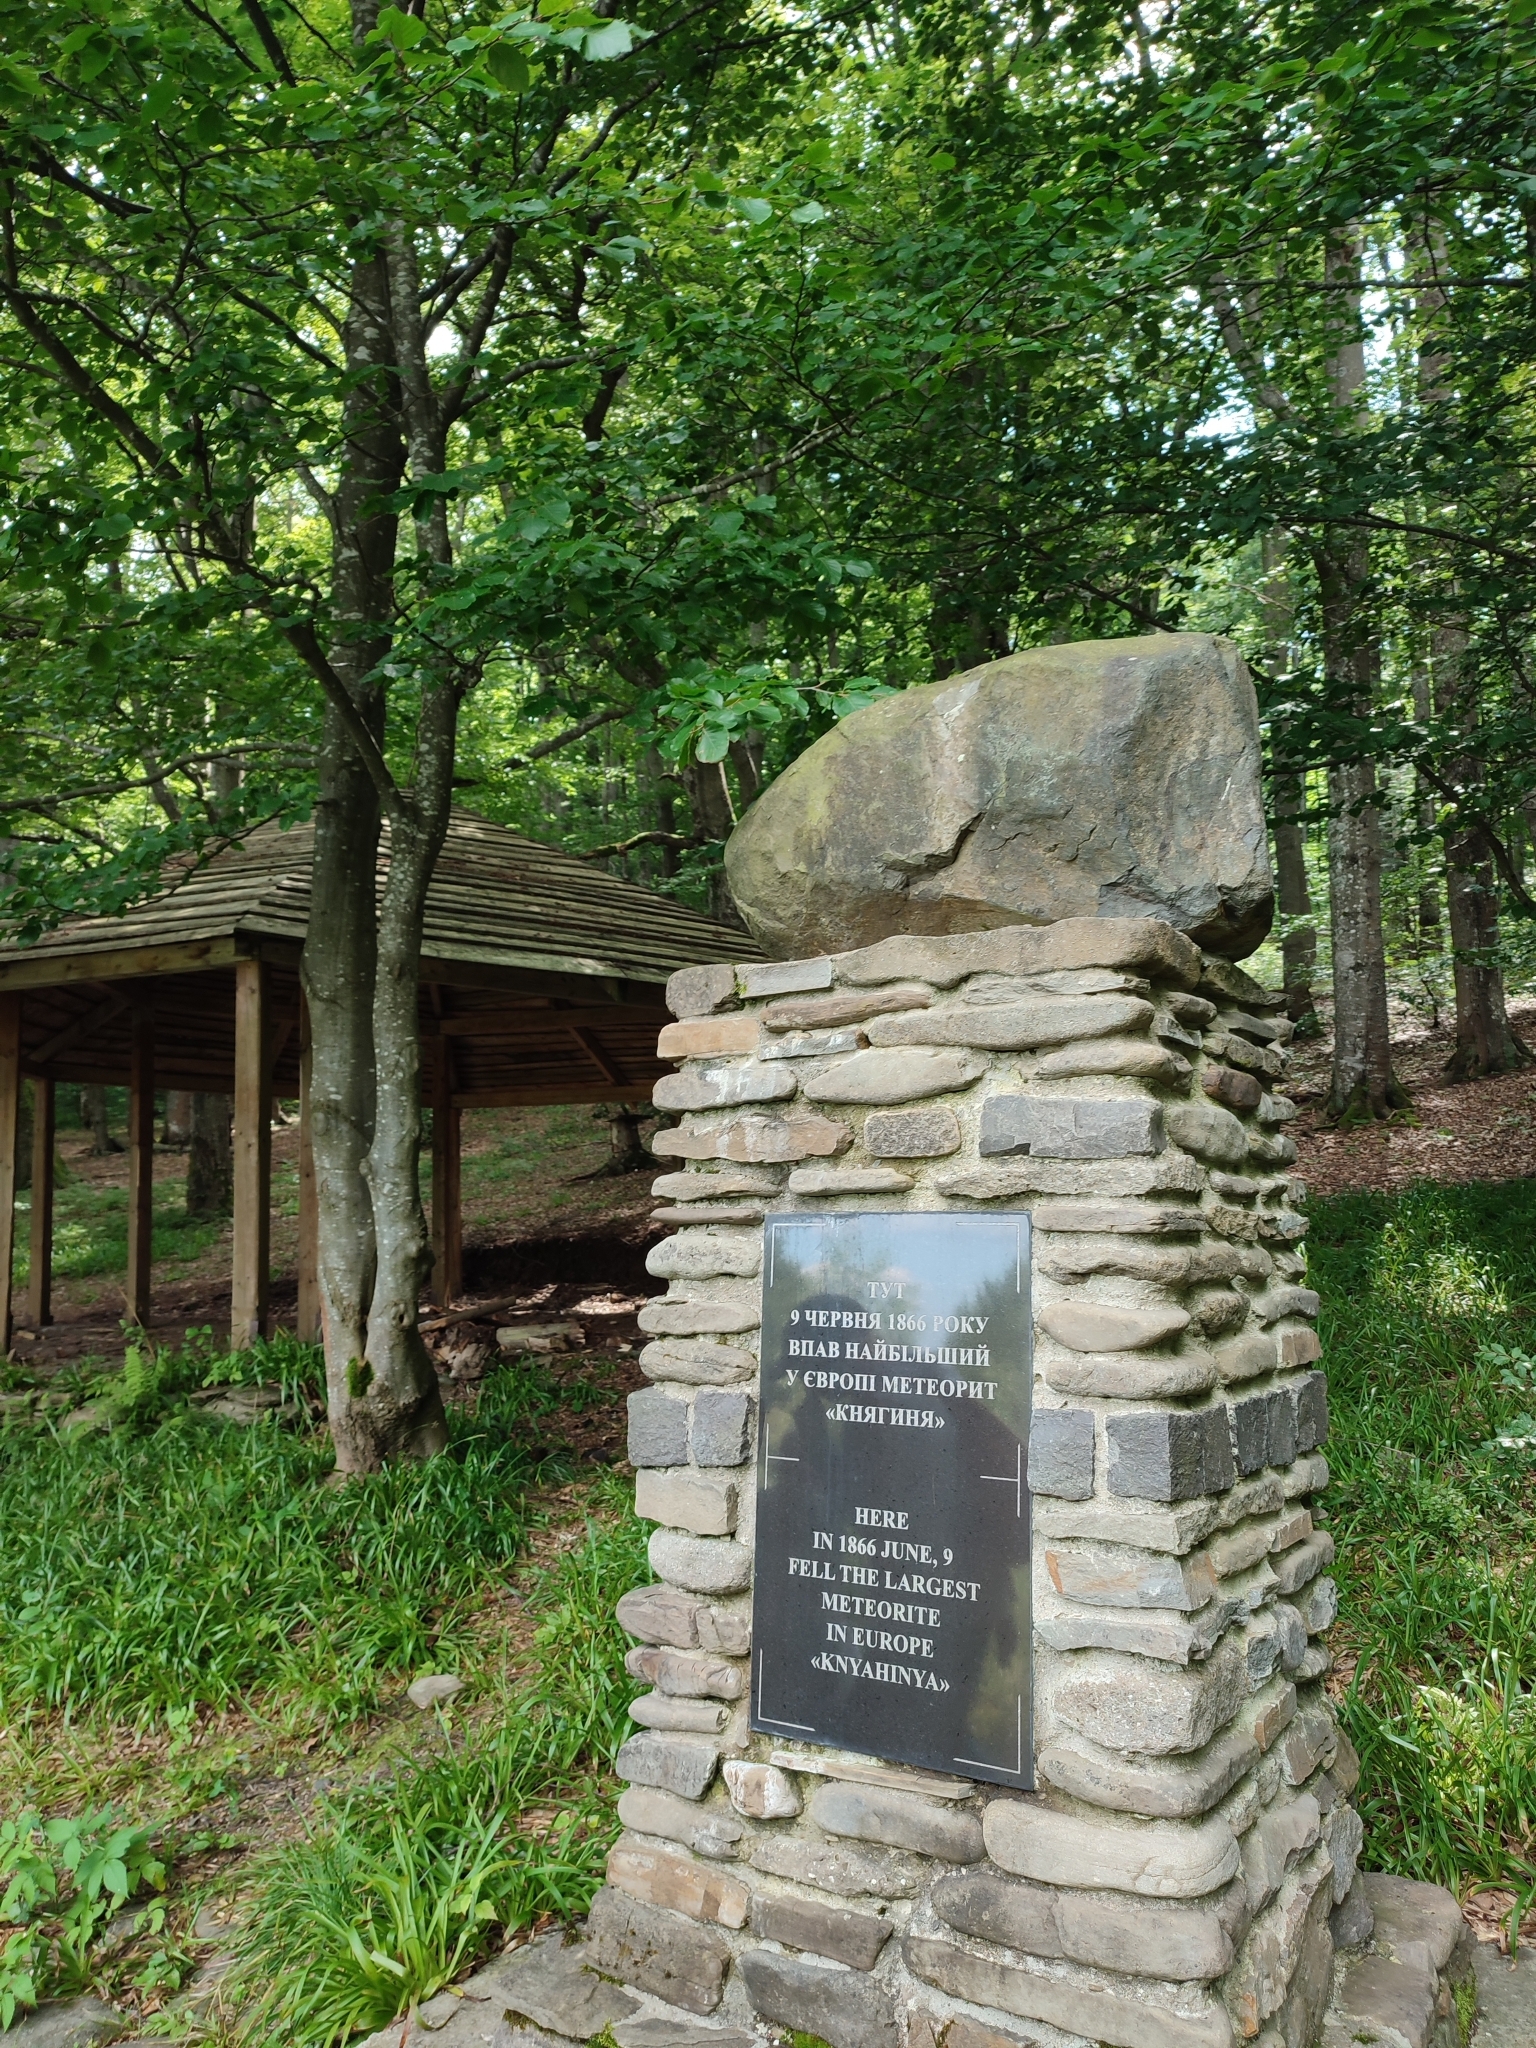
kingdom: Plantae
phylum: Tracheophyta
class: Magnoliopsida
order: Fagales
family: Fagaceae
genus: Fagus
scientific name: Fagus sylvatica
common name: Beech
